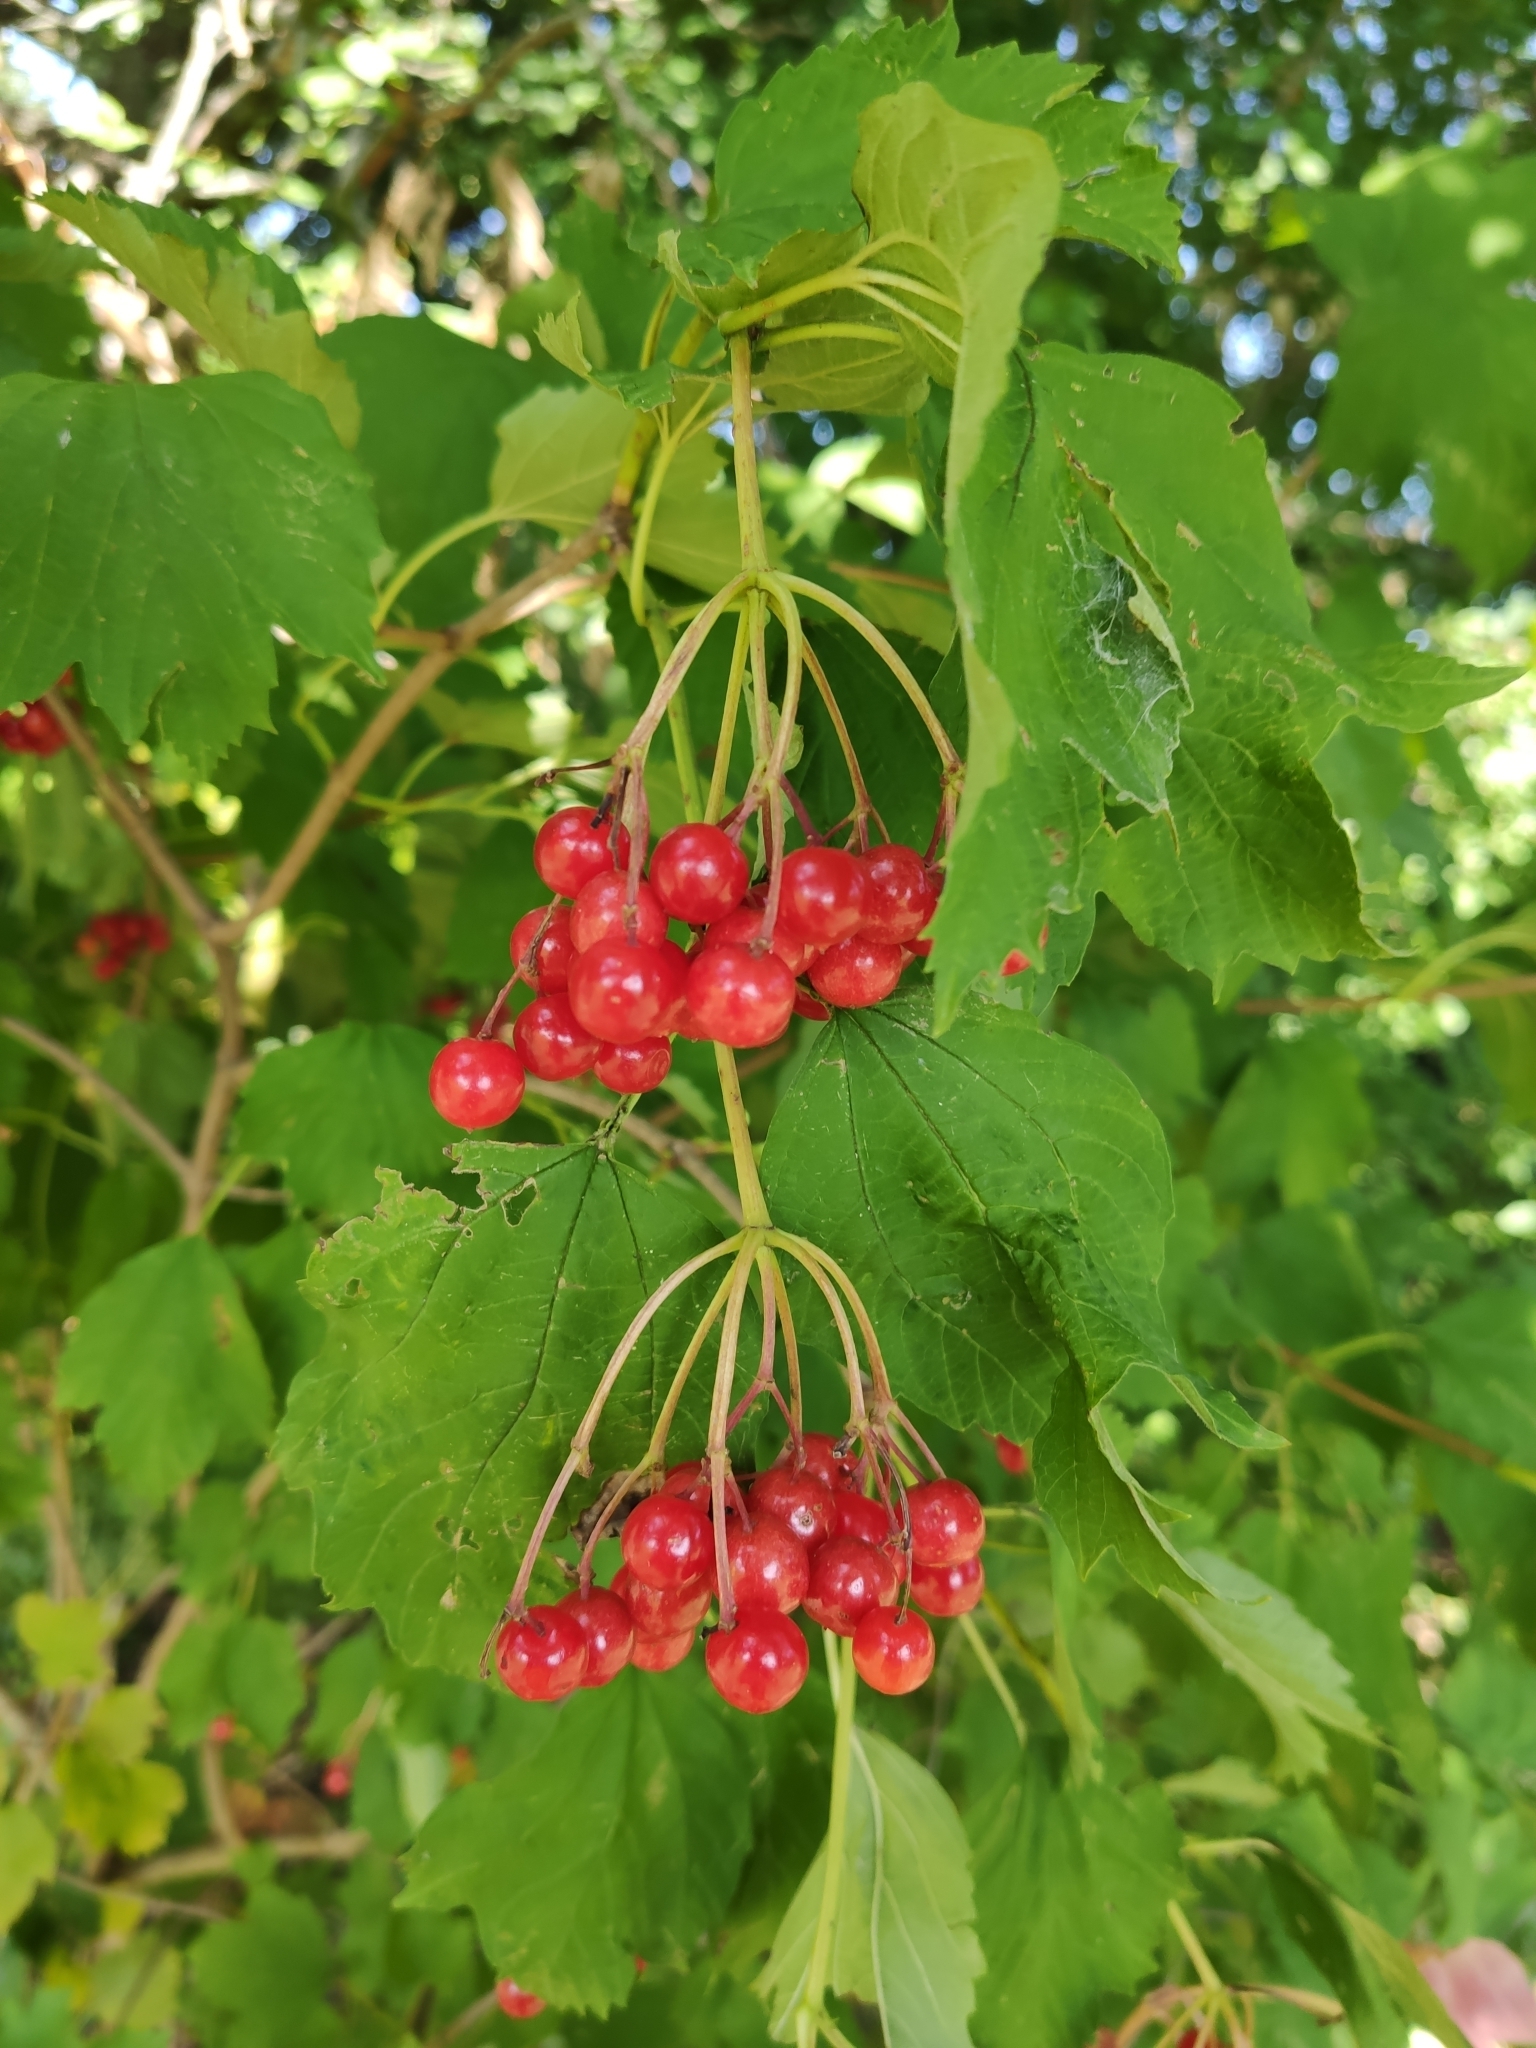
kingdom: Plantae
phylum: Tracheophyta
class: Magnoliopsida
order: Dipsacales
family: Viburnaceae
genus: Viburnum
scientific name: Viburnum opulus
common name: Guelder-rose
